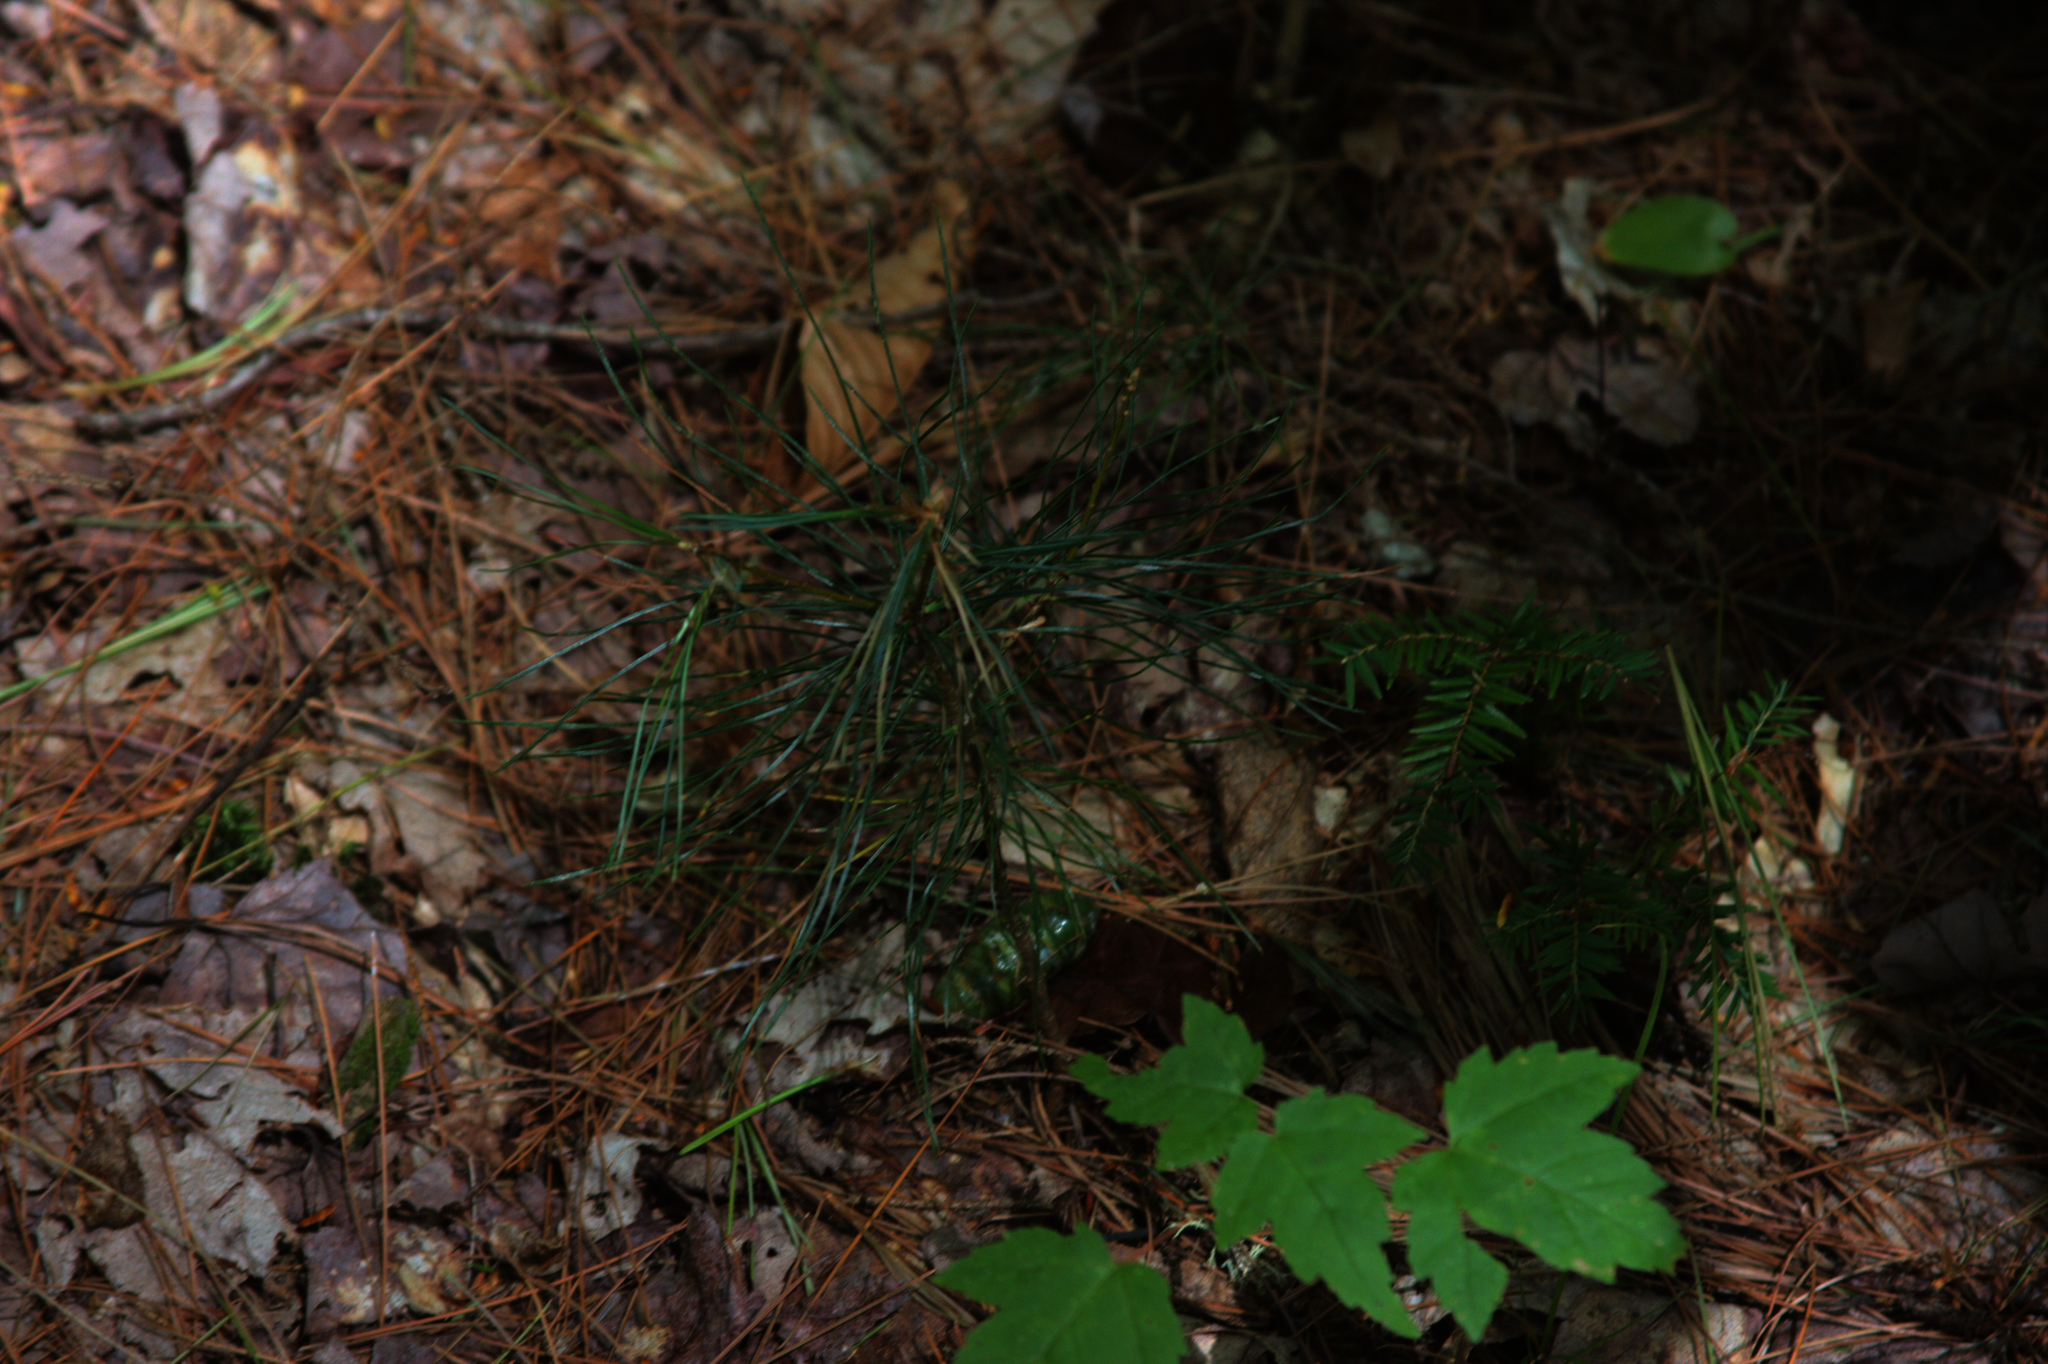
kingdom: Plantae
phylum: Tracheophyta
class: Pinopsida
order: Pinales
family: Pinaceae
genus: Tsuga
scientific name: Tsuga canadensis
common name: Eastern hemlock
